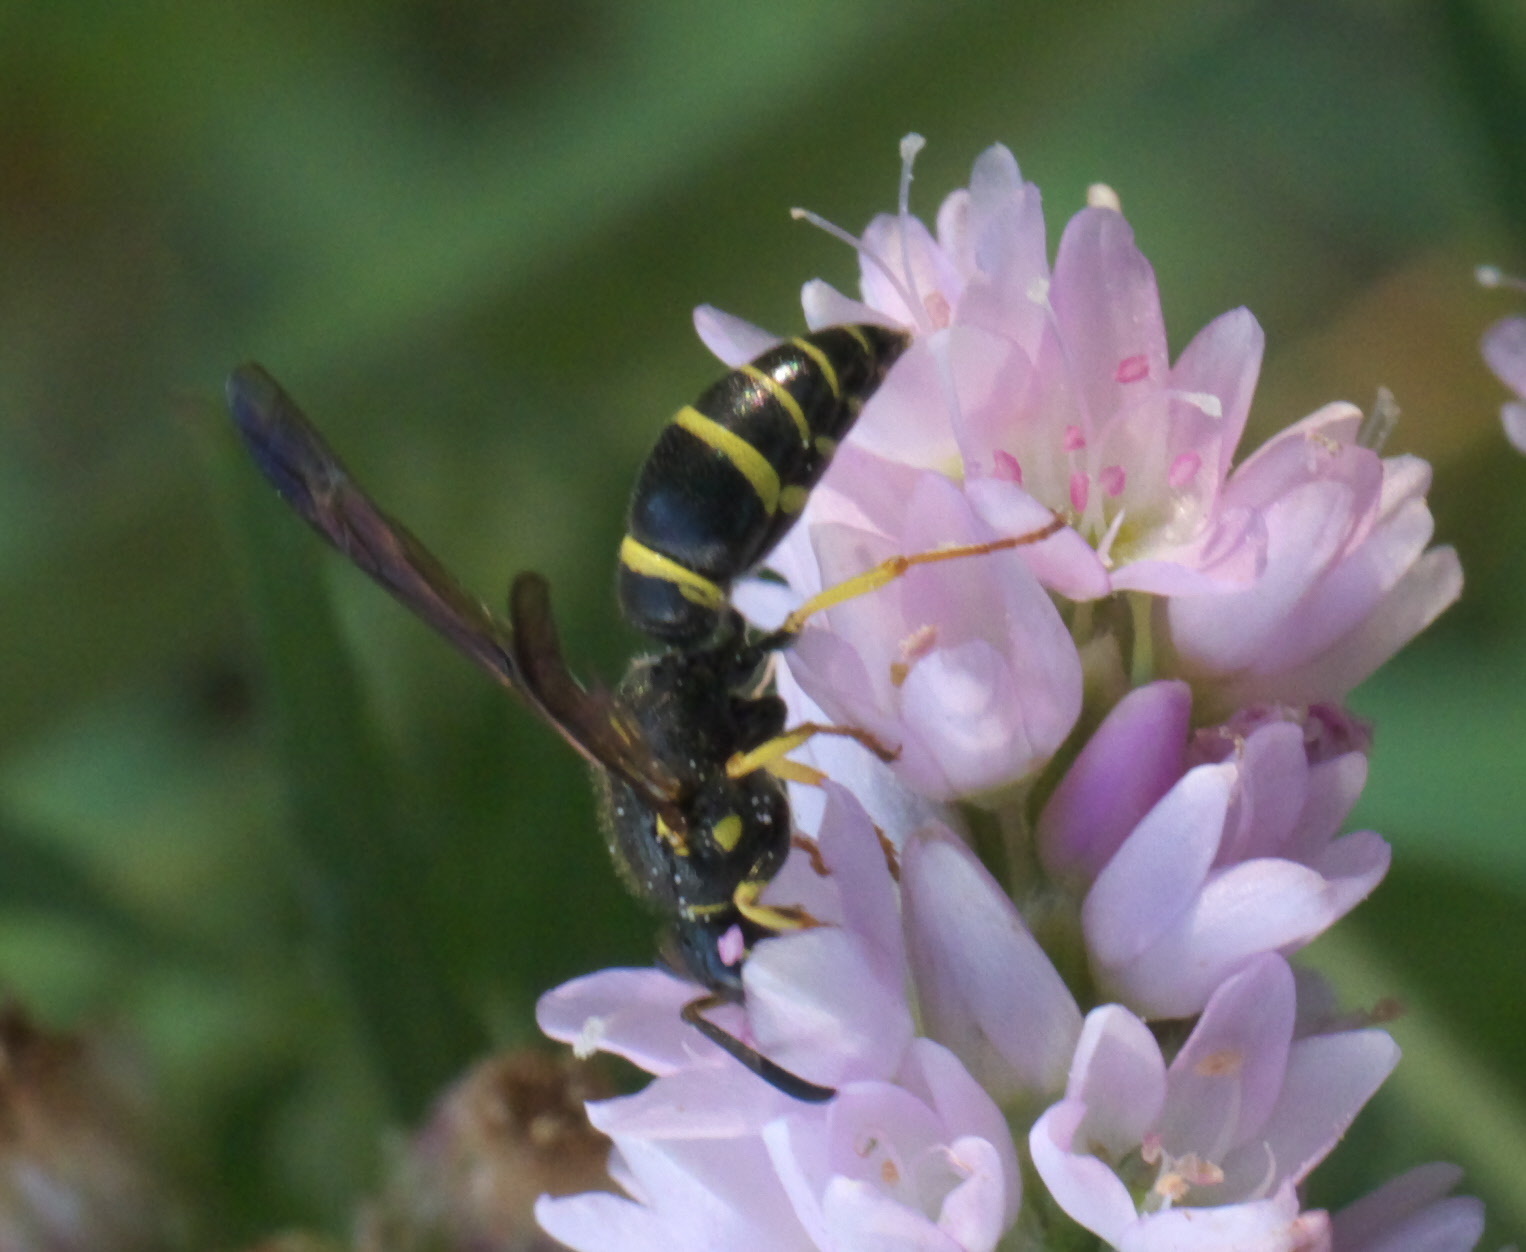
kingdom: Animalia
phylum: Arthropoda
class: Insecta
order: Hymenoptera
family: Vespidae
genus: Ancistrocerus
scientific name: Ancistrocerus adiabatus
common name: Bramble mason wasp
